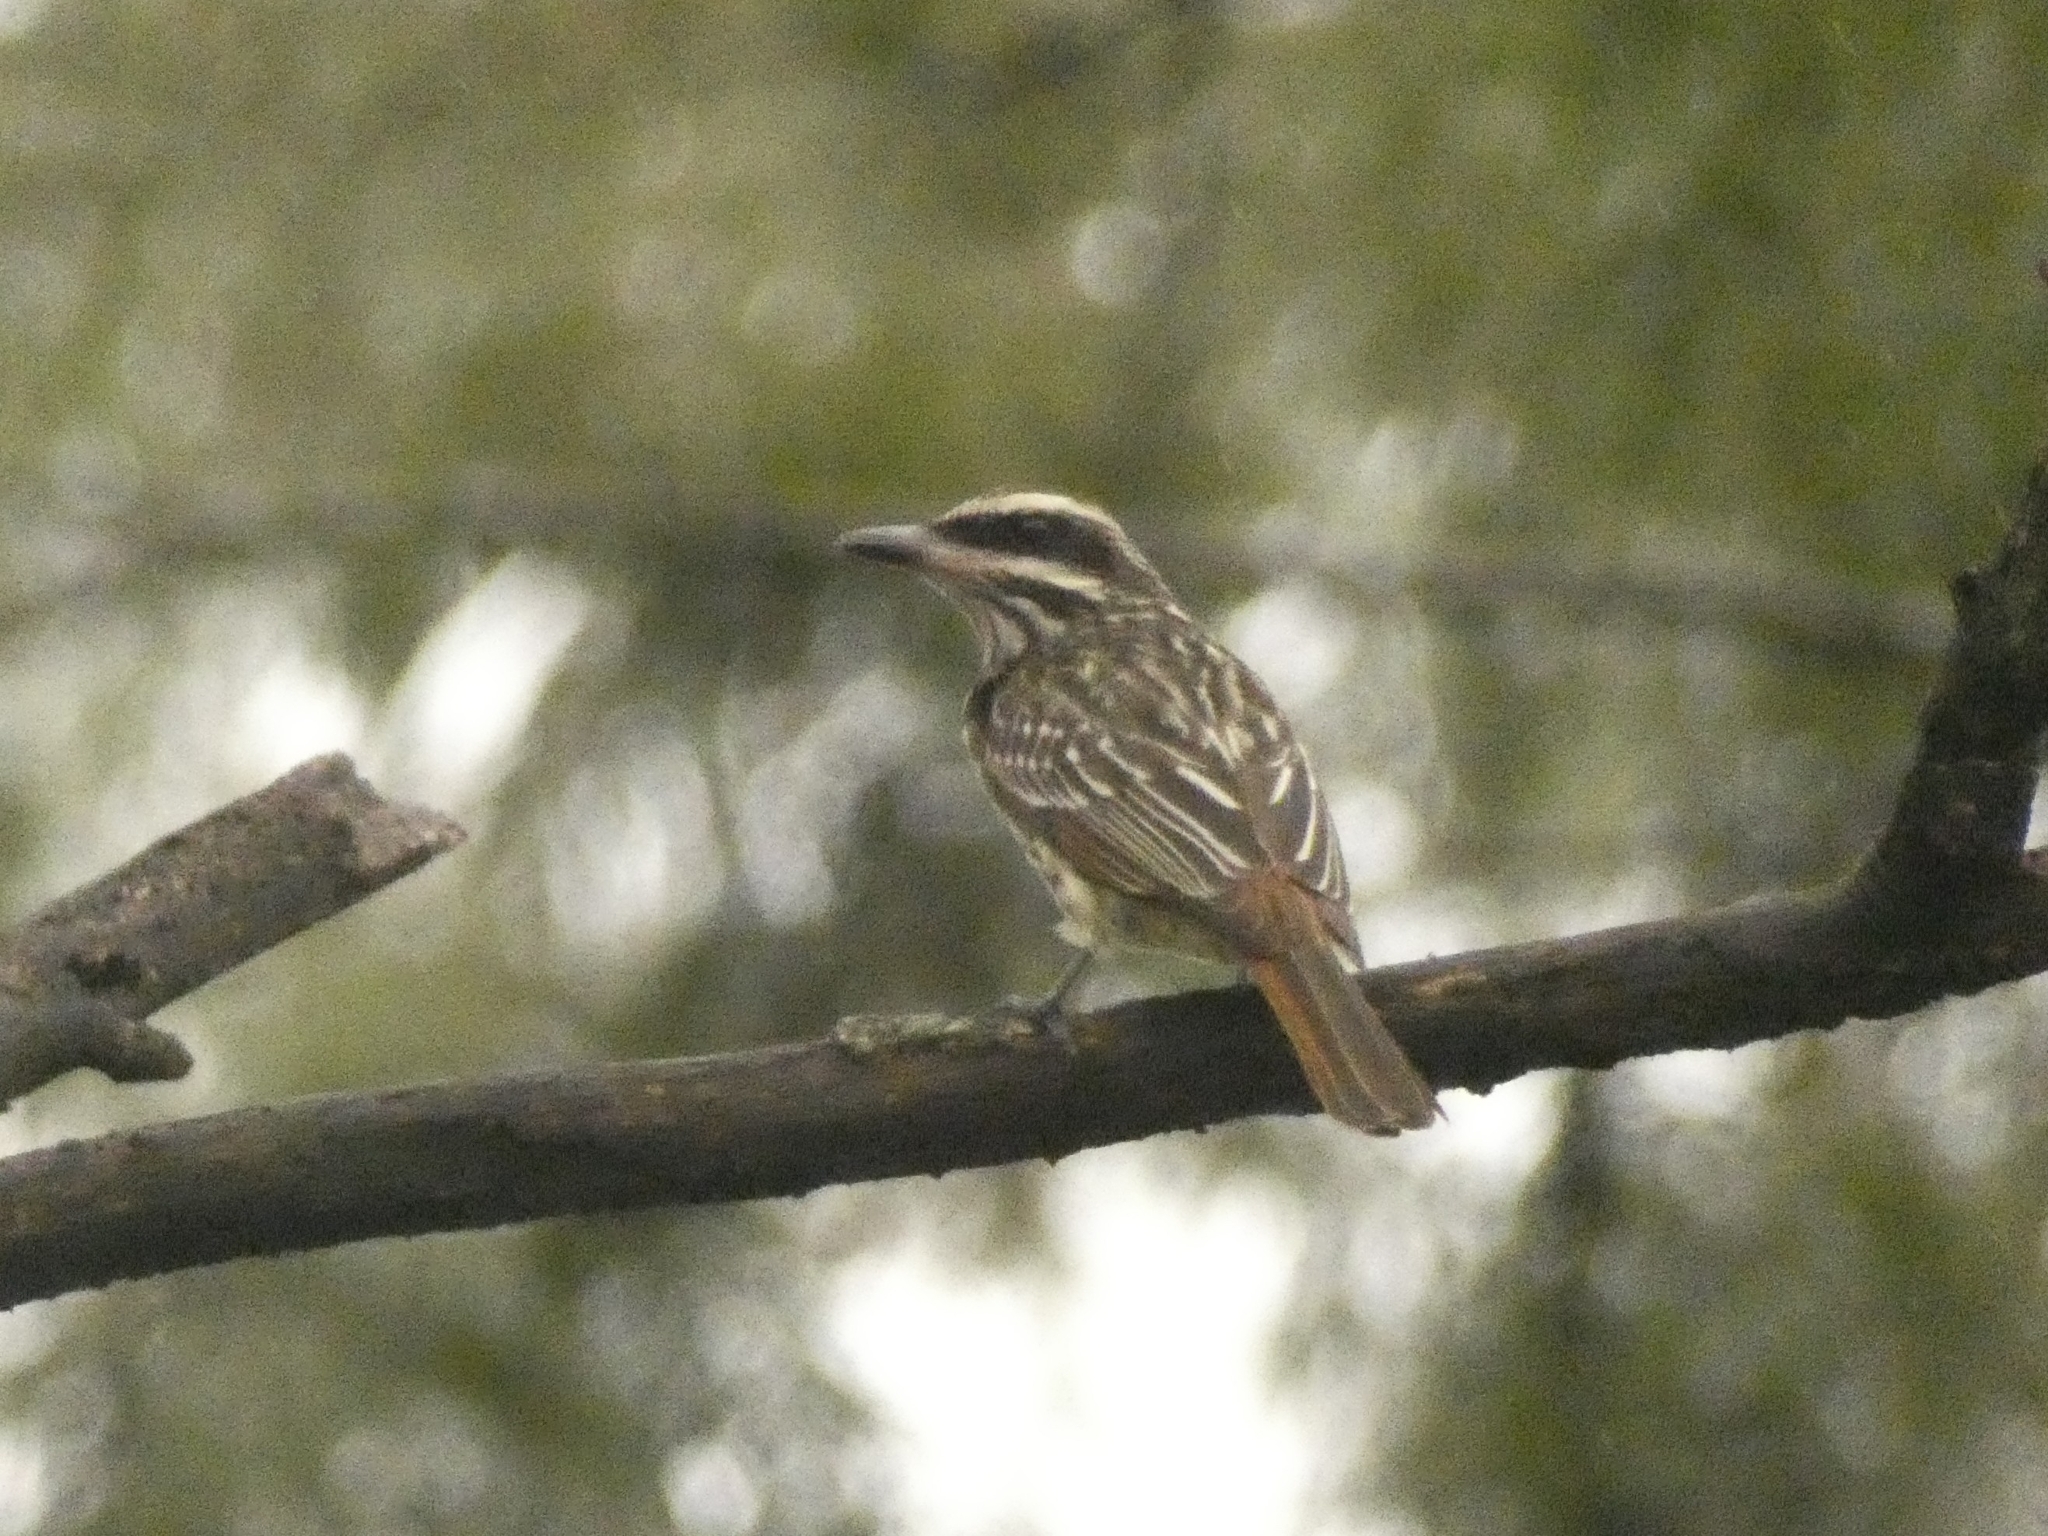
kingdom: Animalia
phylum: Chordata
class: Aves
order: Passeriformes
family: Tyrannidae
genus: Myiodynastes
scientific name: Myiodynastes maculatus
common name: Streaked flycatcher
